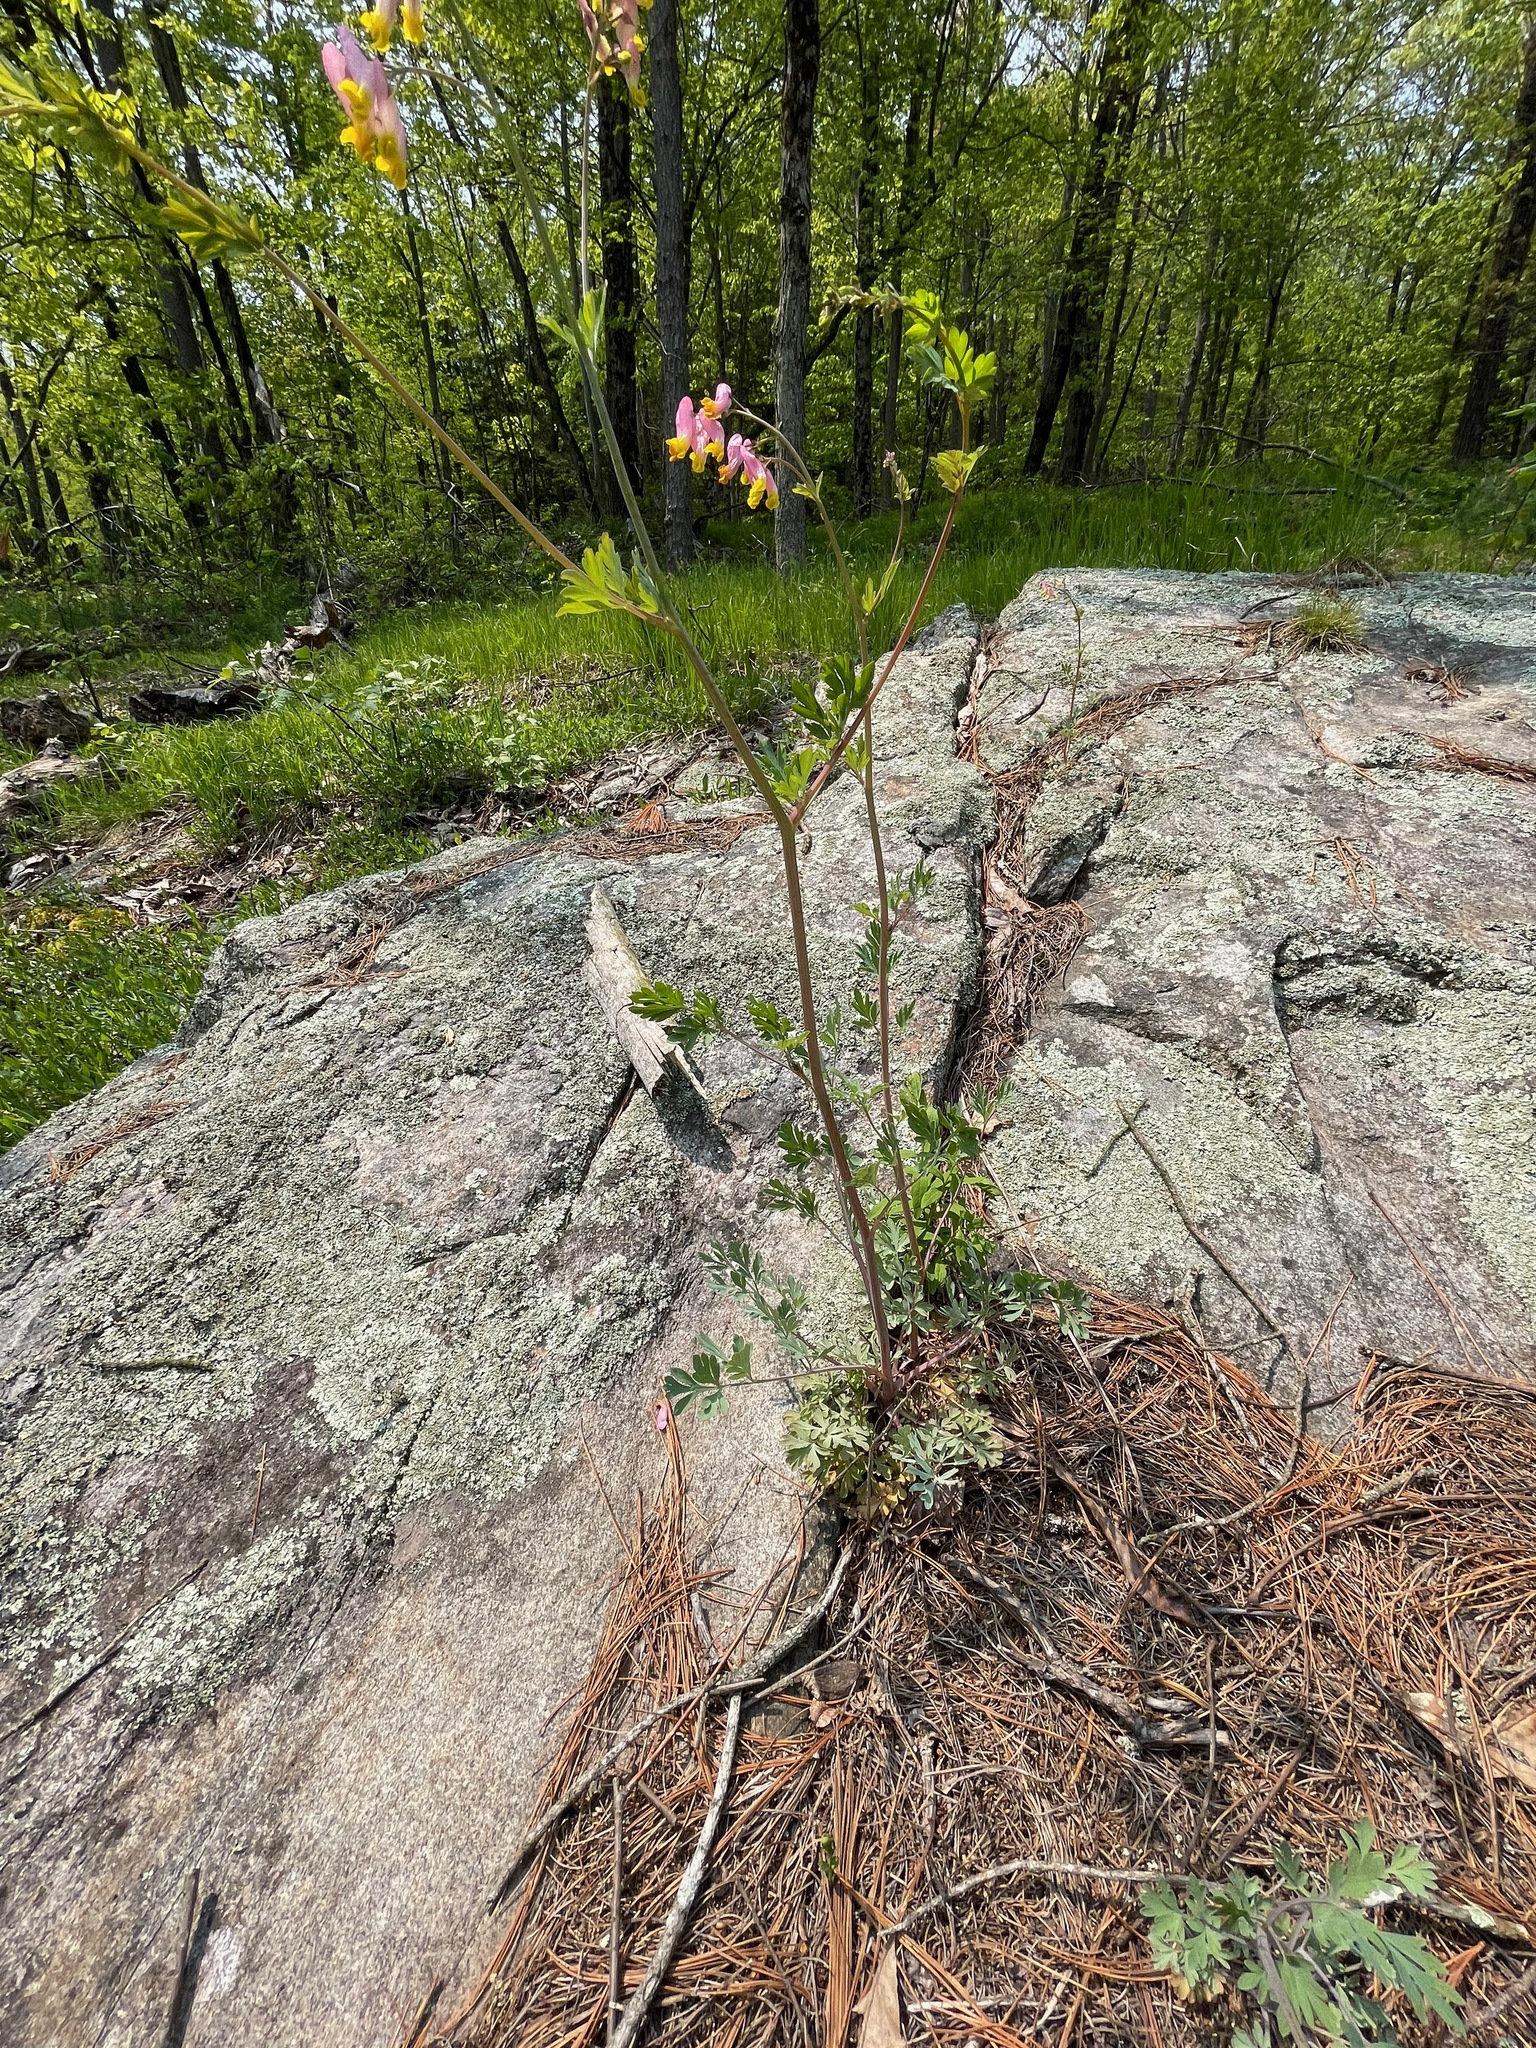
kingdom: Plantae
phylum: Tracheophyta
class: Magnoliopsida
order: Ranunculales
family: Papaveraceae
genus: Capnoides
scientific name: Capnoides sempervirens
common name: Rock harlequin
